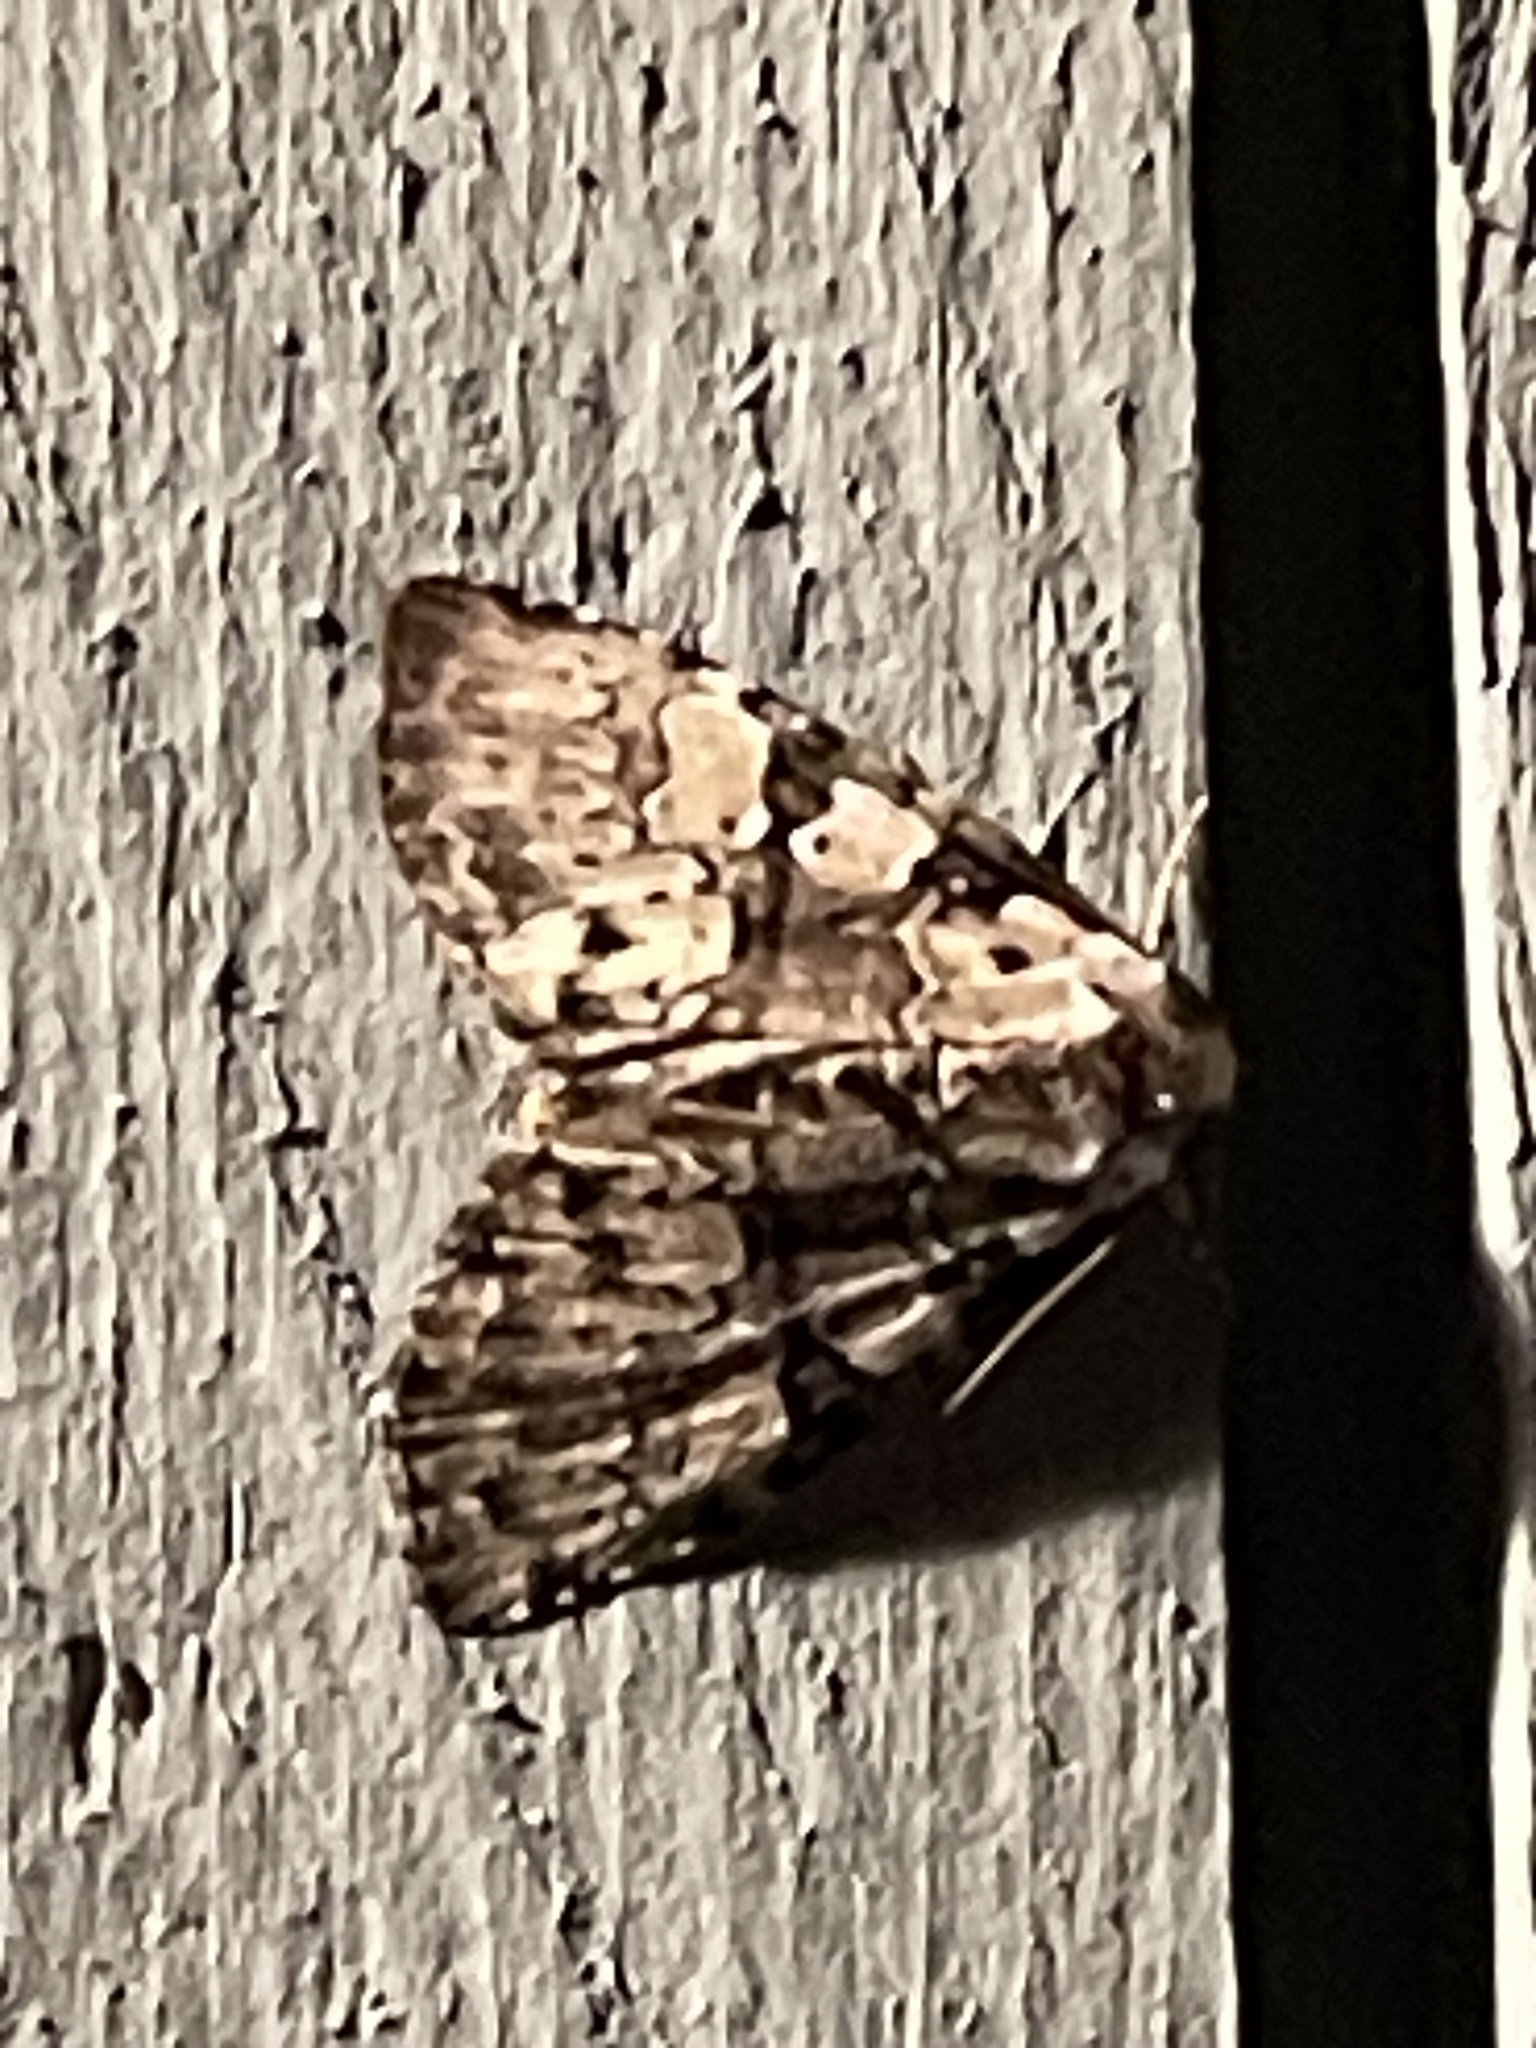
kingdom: Animalia
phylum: Arthropoda
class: Insecta
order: Lepidoptera
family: Noctuidae
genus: Leuconycta
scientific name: Leuconycta lepidula
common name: Marbled-green leuconycta moth
